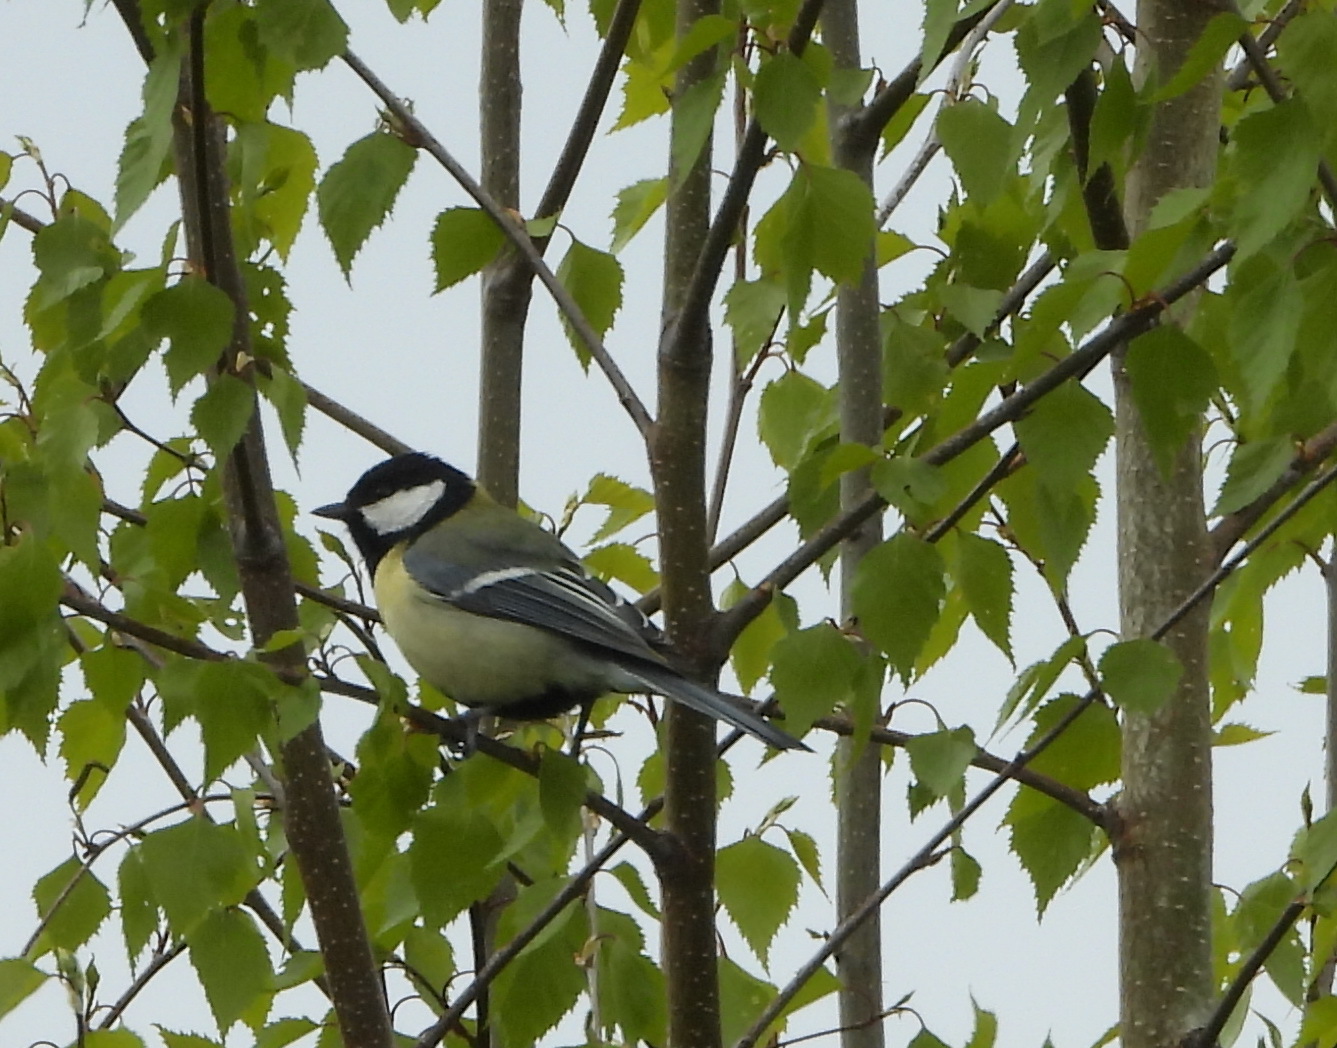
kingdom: Animalia
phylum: Chordata
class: Aves
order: Passeriformes
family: Paridae
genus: Parus
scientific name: Parus major
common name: Great tit
